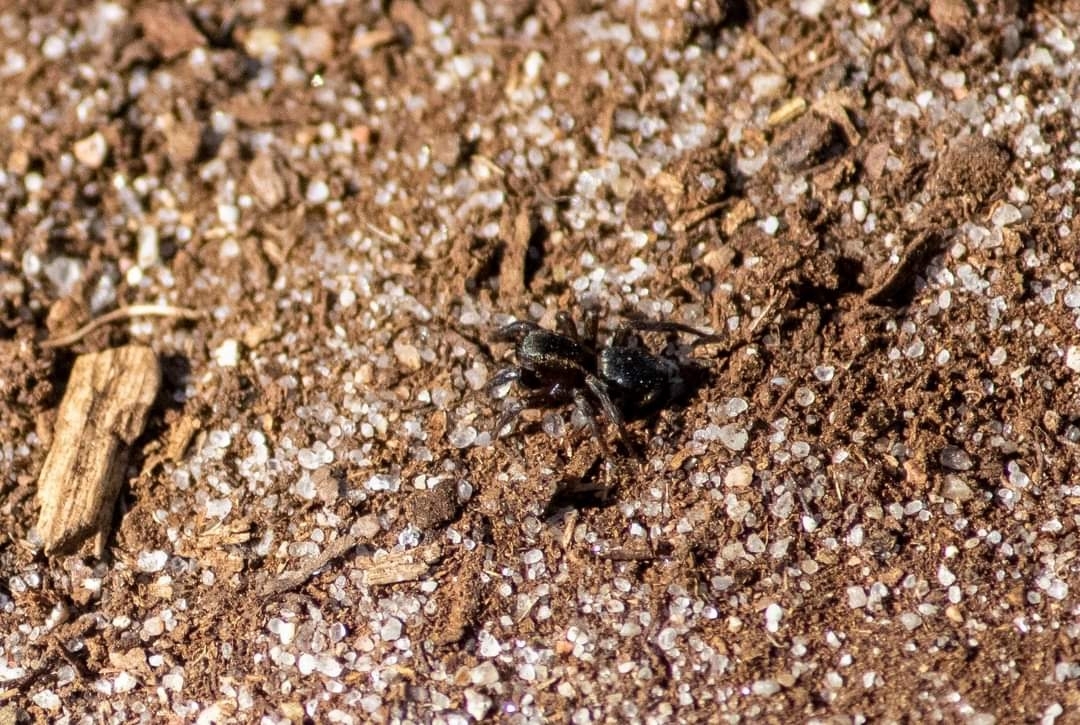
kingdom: Animalia
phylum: Arthropoda
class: Arachnida
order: Araneae
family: Salticidae
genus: Phlegra
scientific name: Phlegra fasciata
